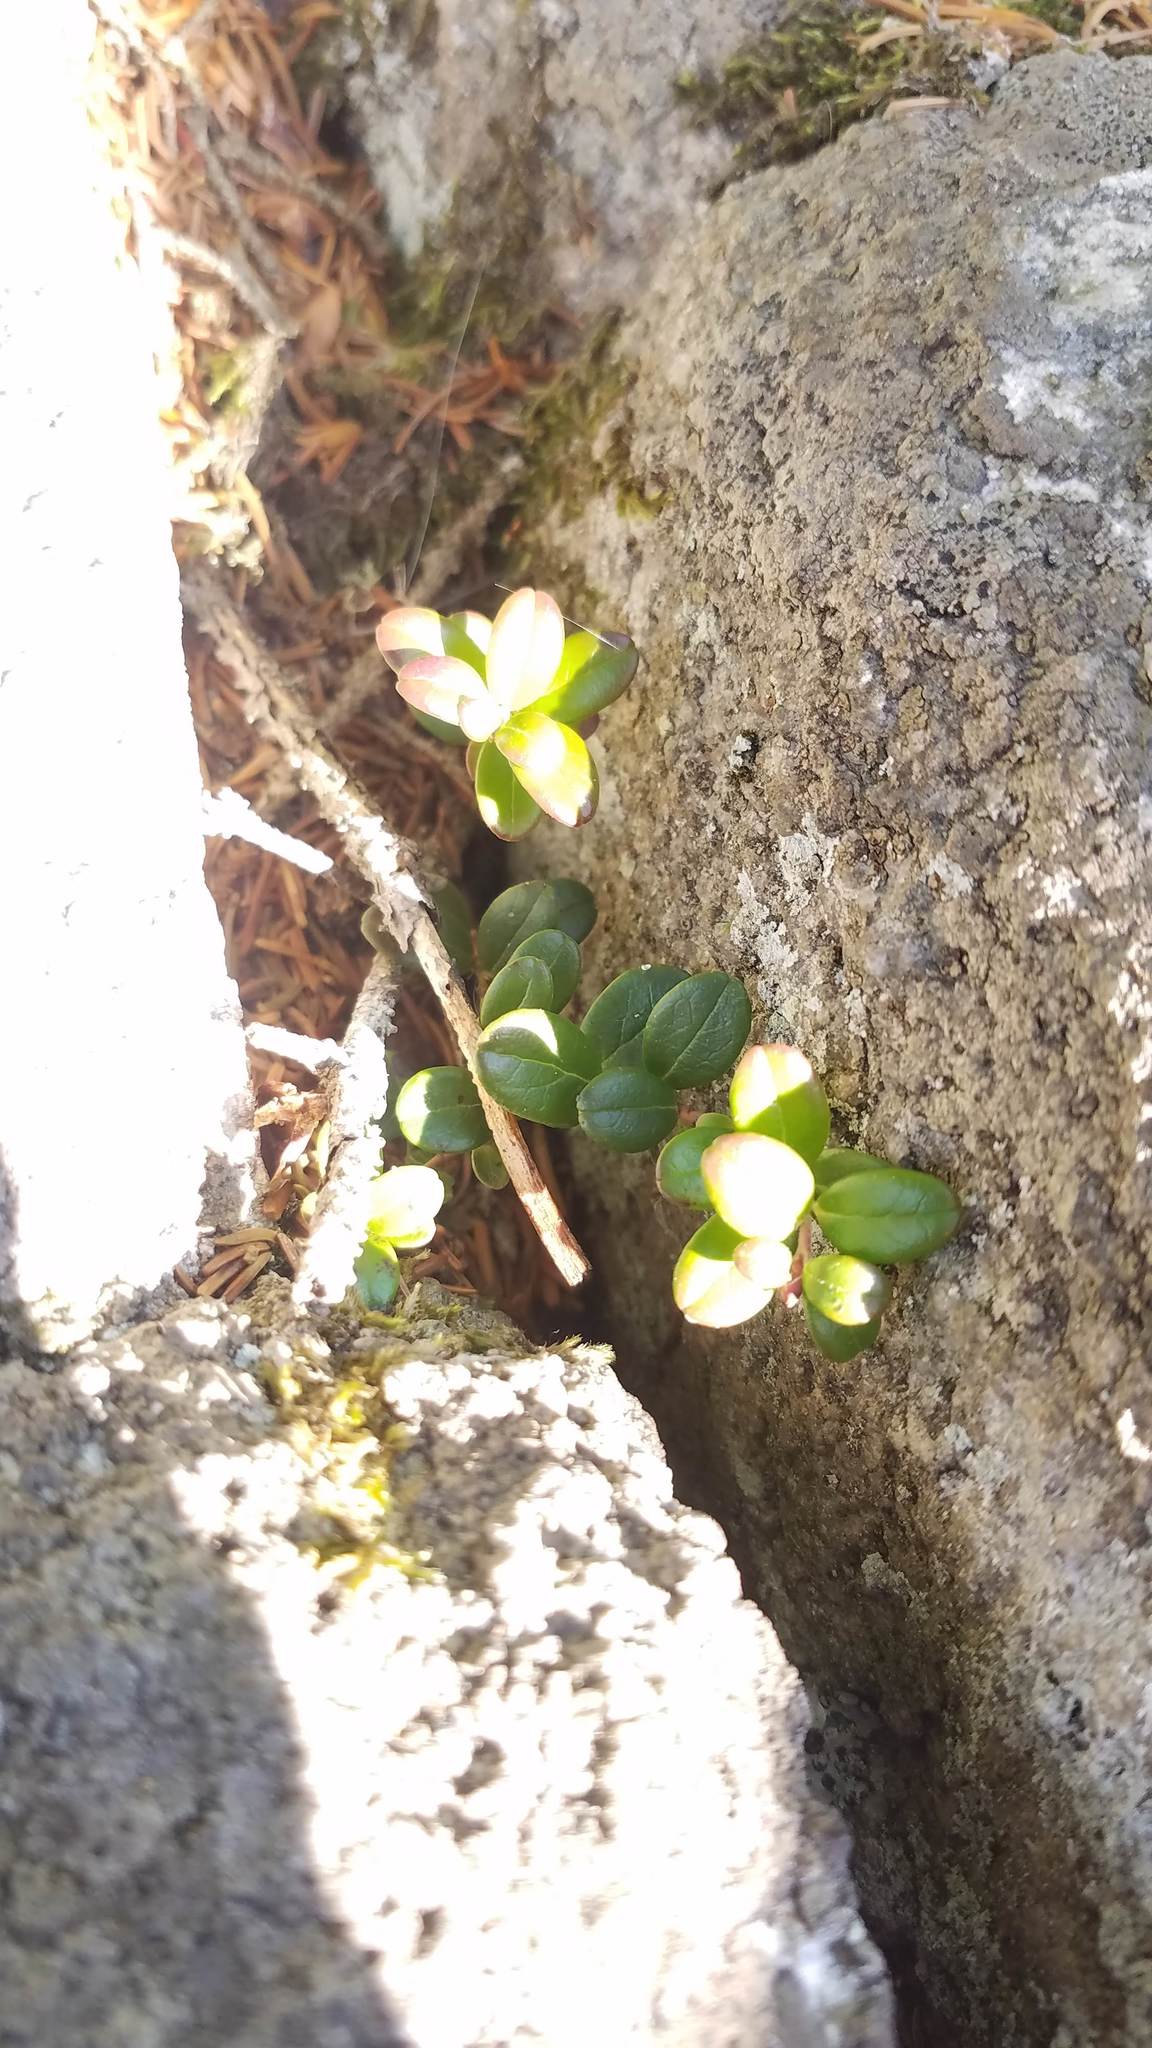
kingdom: Plantae
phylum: Tracheophyta
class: Magnoliopsida
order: Ericales
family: Ericaceae
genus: Vaccinium
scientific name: Vaccinium vitis-idaea
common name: Cowberry
